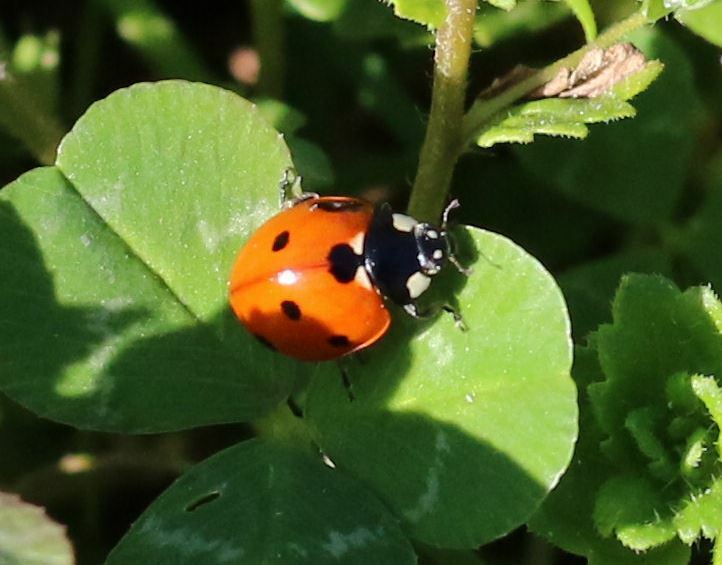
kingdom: Animalia
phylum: Arthropoda
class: Insecta
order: Coleoptera
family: Coccinellidae
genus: Coccinella
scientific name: Coccinella septempunctata
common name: Sevenspotted lady beetle
